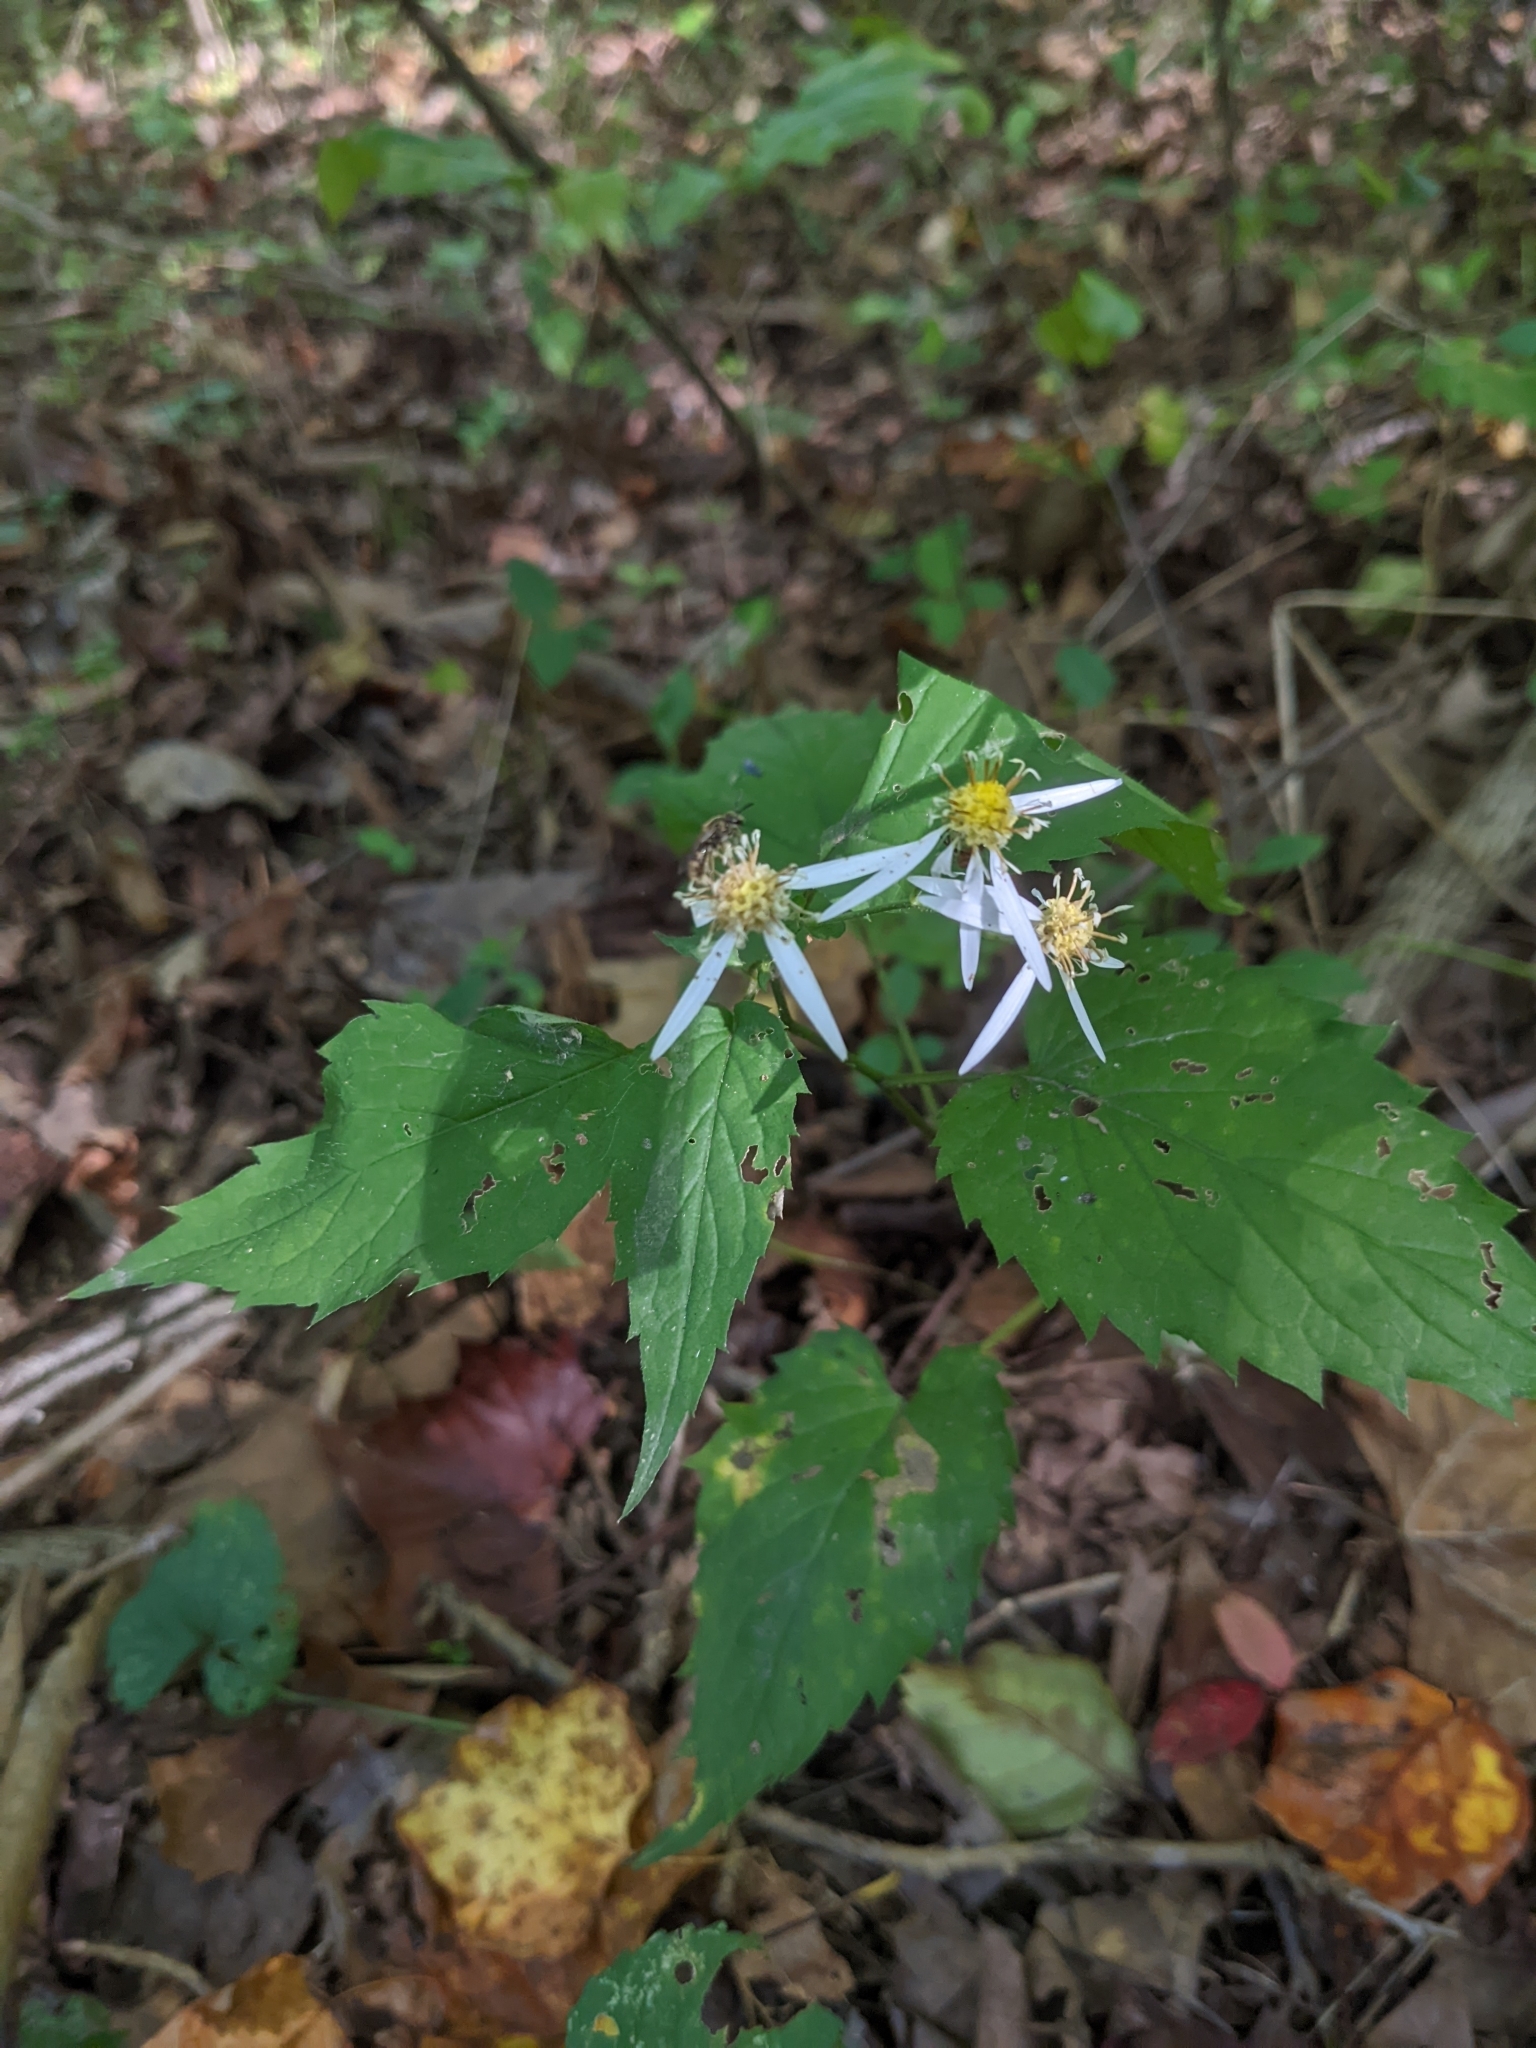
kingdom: Plantae
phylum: Tracheophyta
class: Magnoliopsida
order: Asterales
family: Asteraceae
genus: Eurybia
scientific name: Eurybia divaricata
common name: White wood aster
